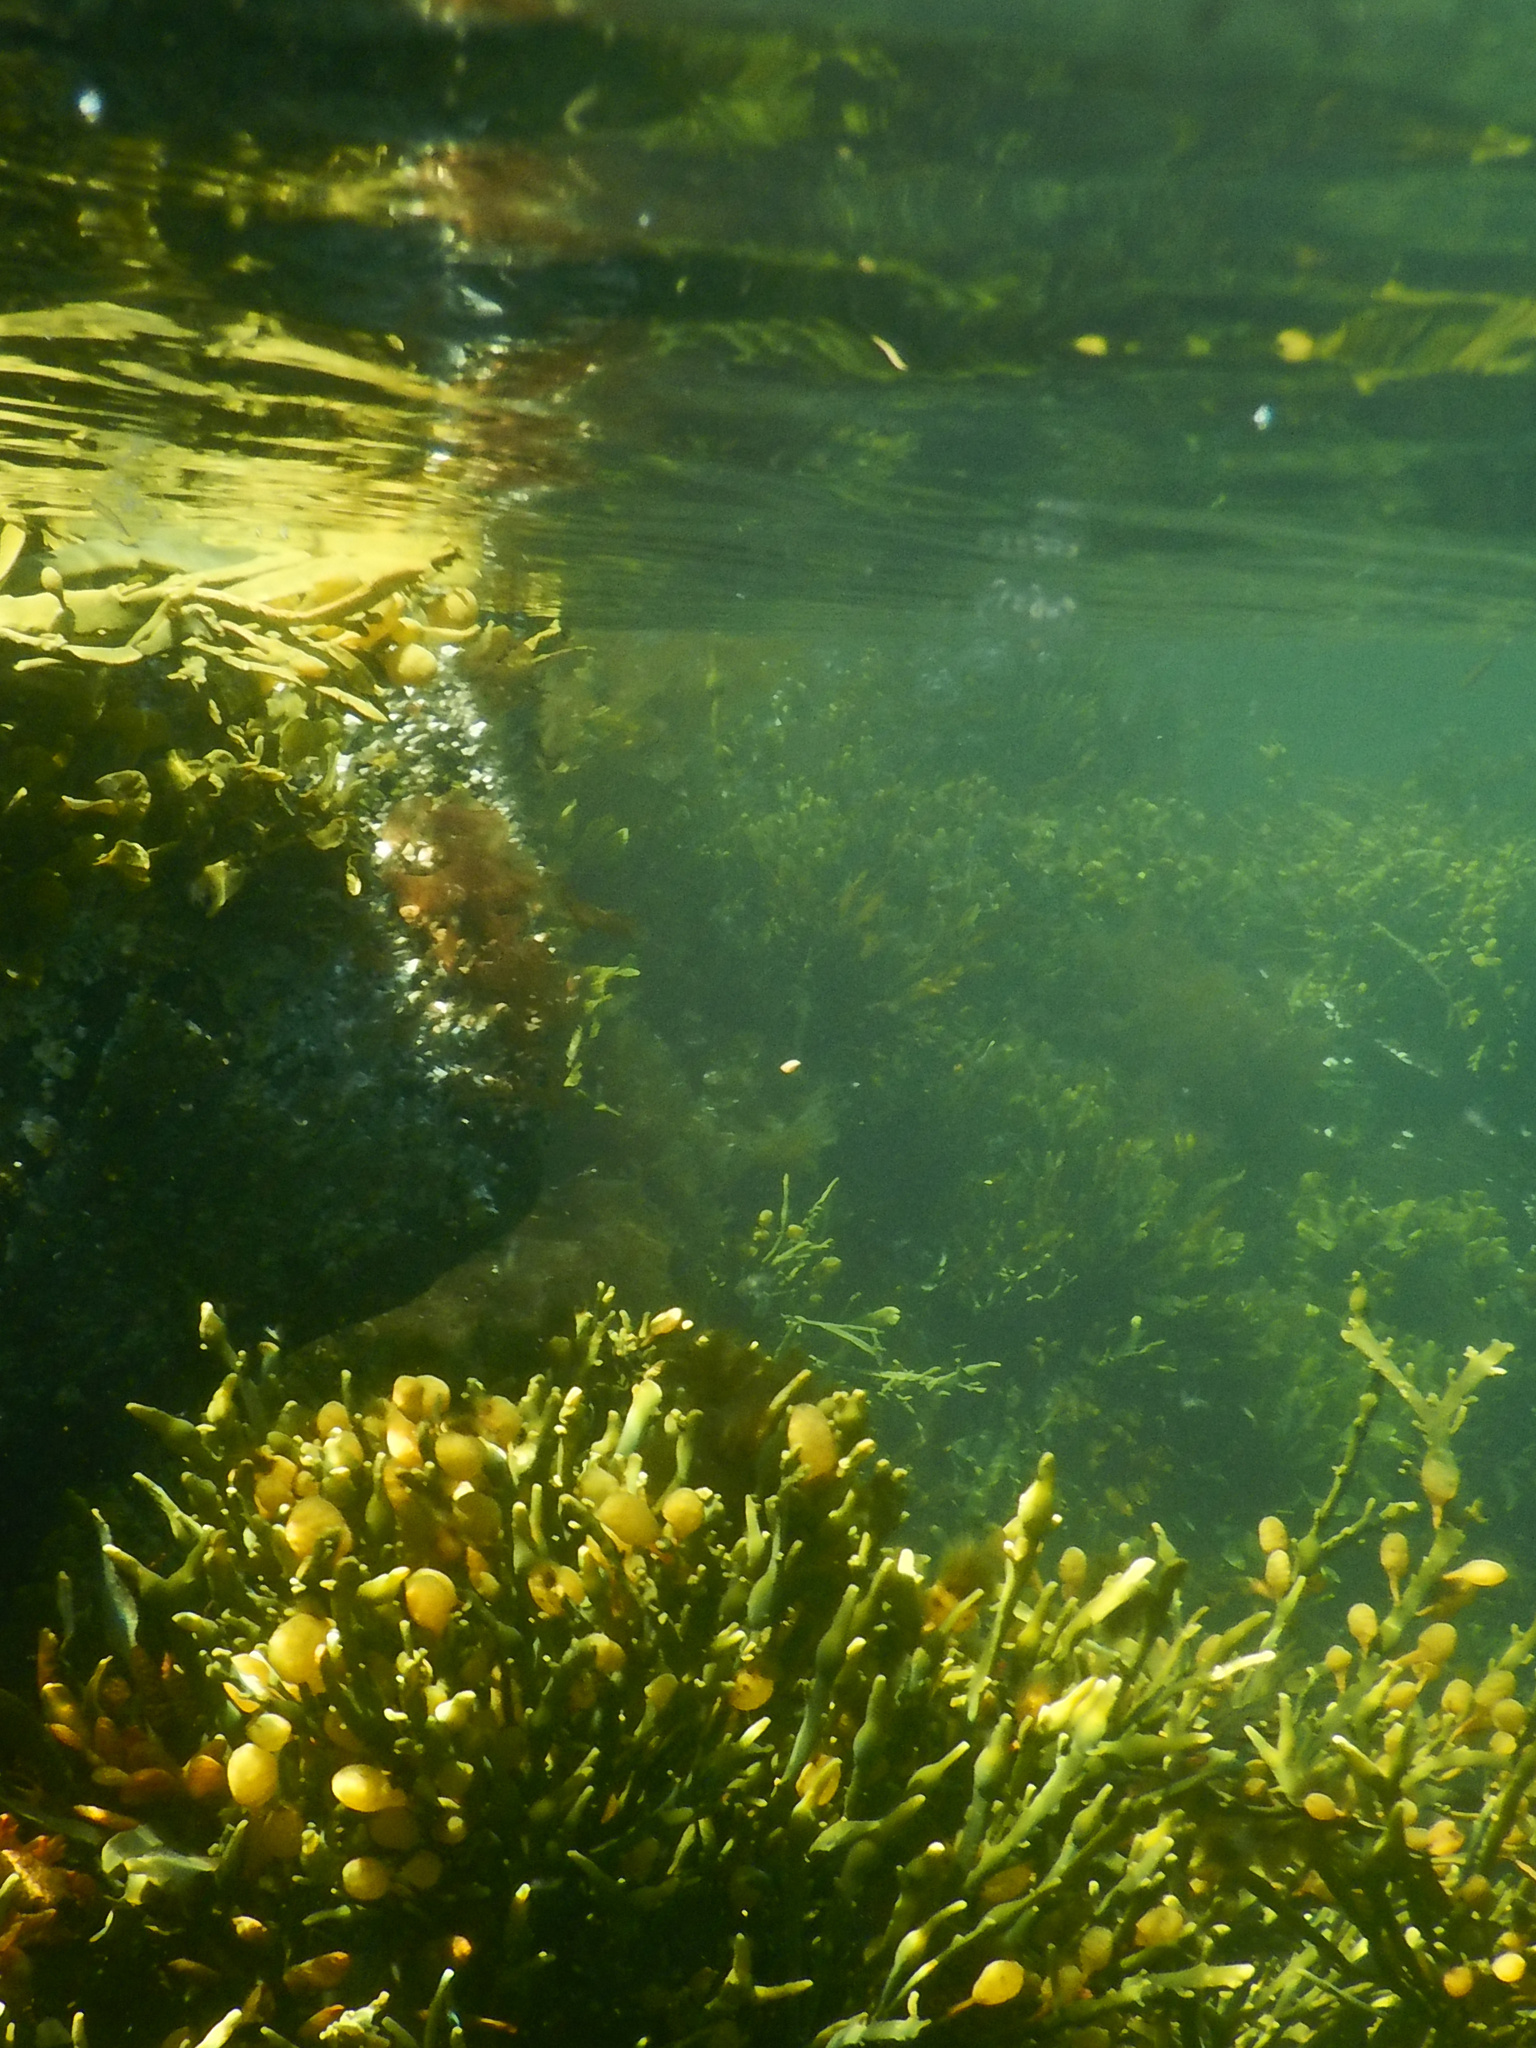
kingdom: Chromista
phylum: Ochrophyta
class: Phaeophyceae
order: Fucales
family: Fucaceae
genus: Ascophyllum
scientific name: Ascophyllum nodosum
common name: Knotted wrack
